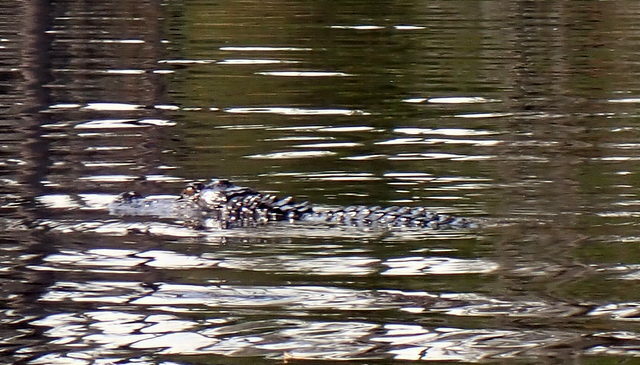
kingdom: Animalia
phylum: Chordata
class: Crocodylia
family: Alligatoridae
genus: Alligator
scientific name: Alligator mississippiensis
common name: American alligator
